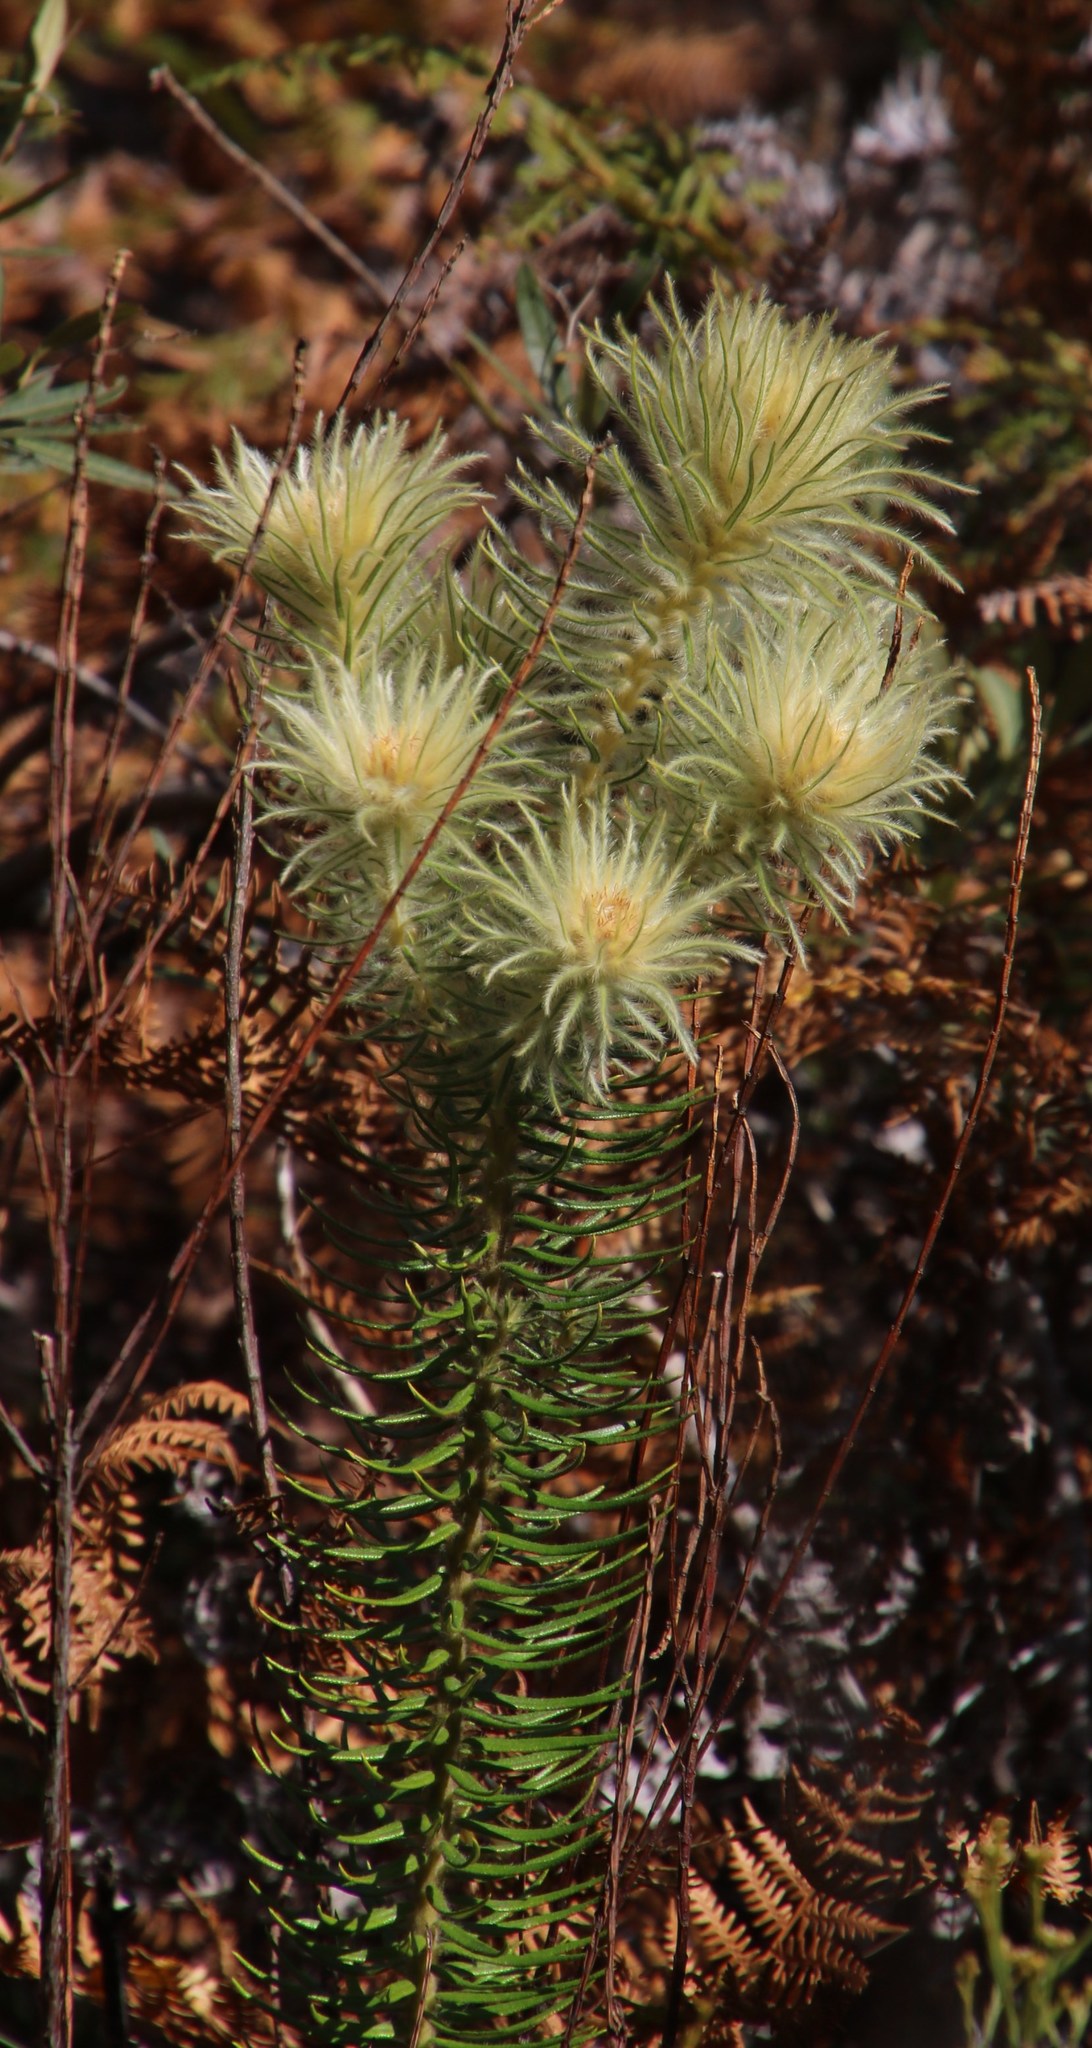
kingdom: Plantae
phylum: Tracheophyta
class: Magnoliopsida
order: Rosales
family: Rhamnaceae
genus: Phylica
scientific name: Phylica plumosa
